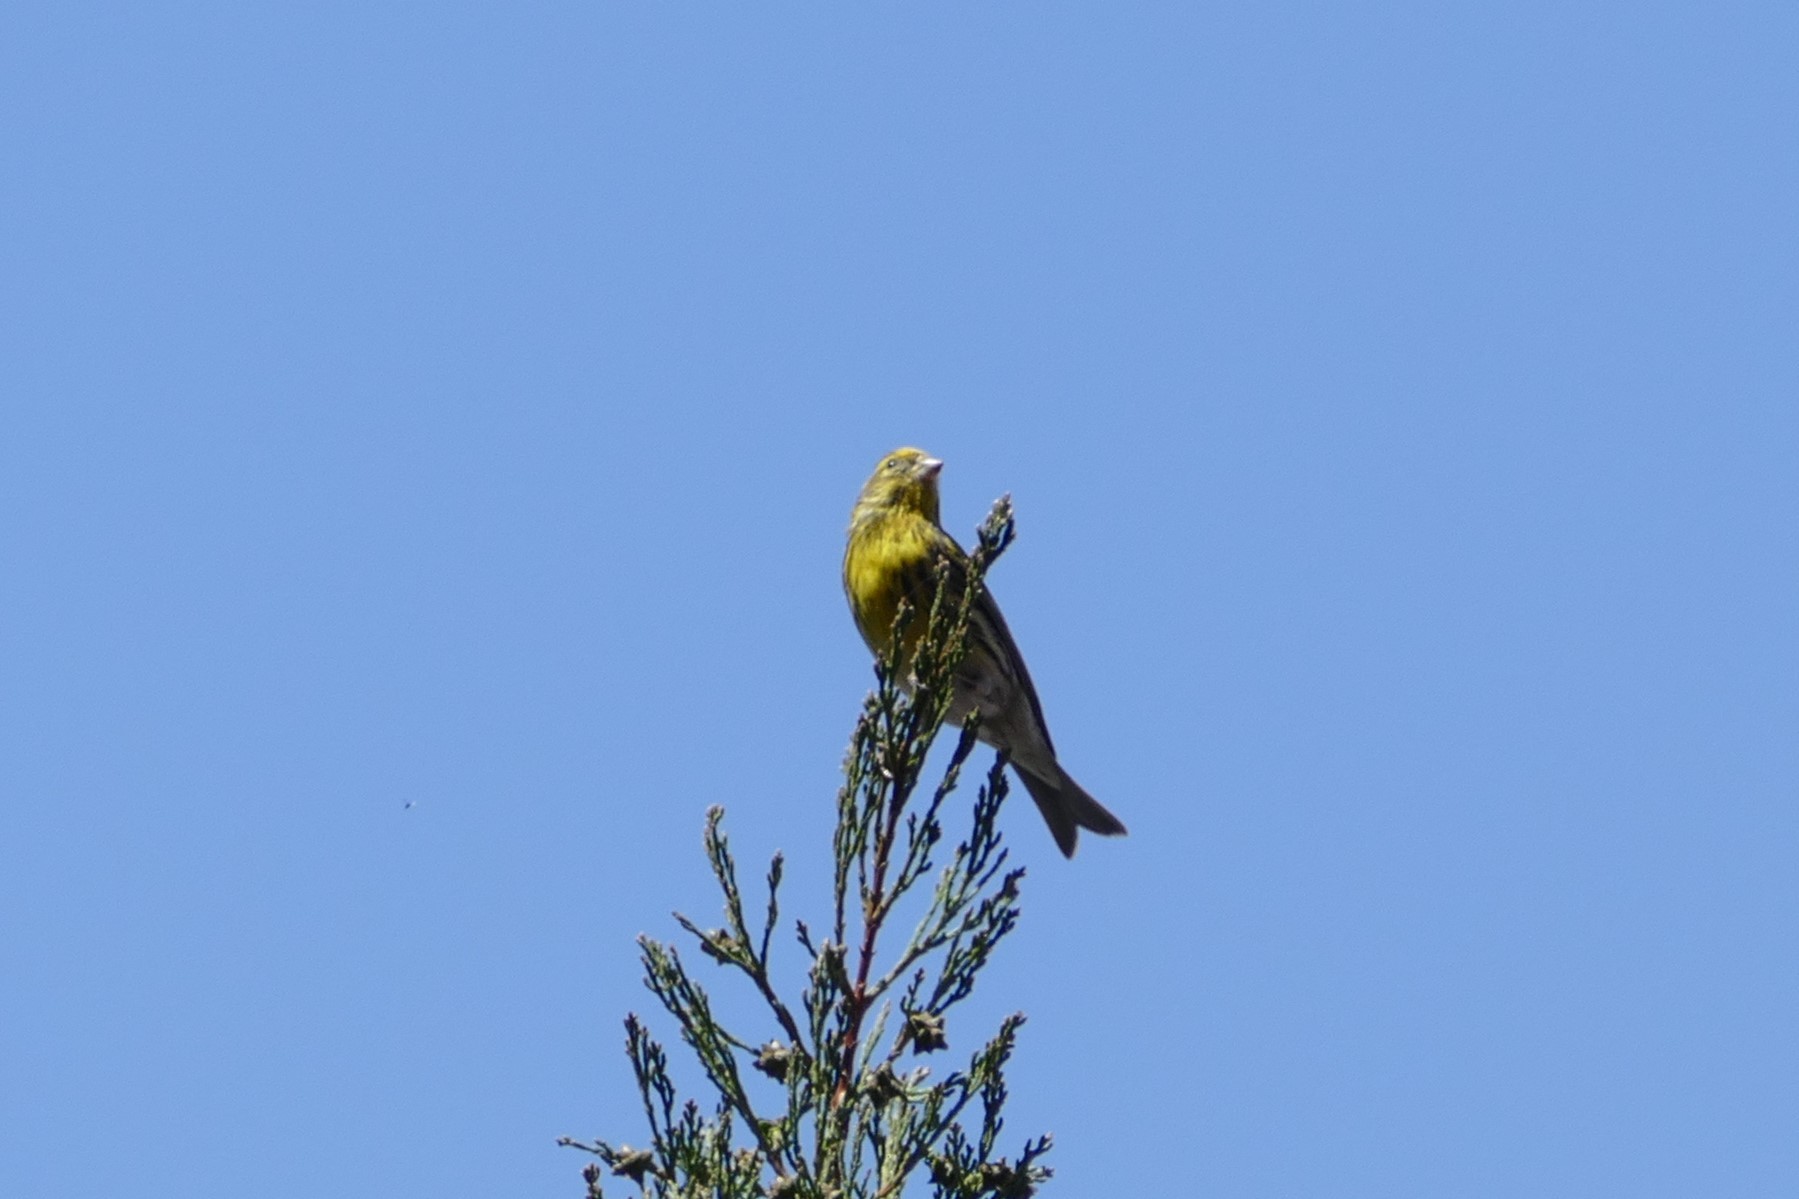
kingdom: Animalia
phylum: Chordata
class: Aves
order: Passeriformes
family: Fringillidae
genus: Serinus
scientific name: Serinus serinus
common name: European serin
